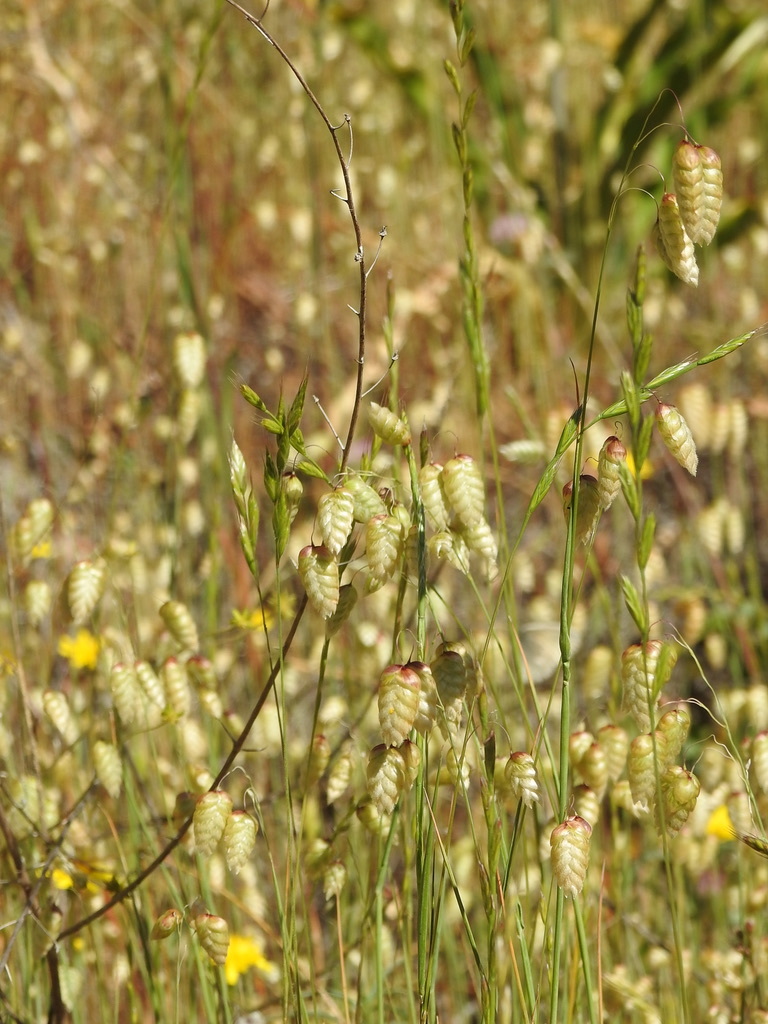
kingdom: Plantae
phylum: Tracheophyta
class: Liliopsida
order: Poales
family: Poaceae
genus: Briza
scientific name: Briza maxima
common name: Big quakinggrass
